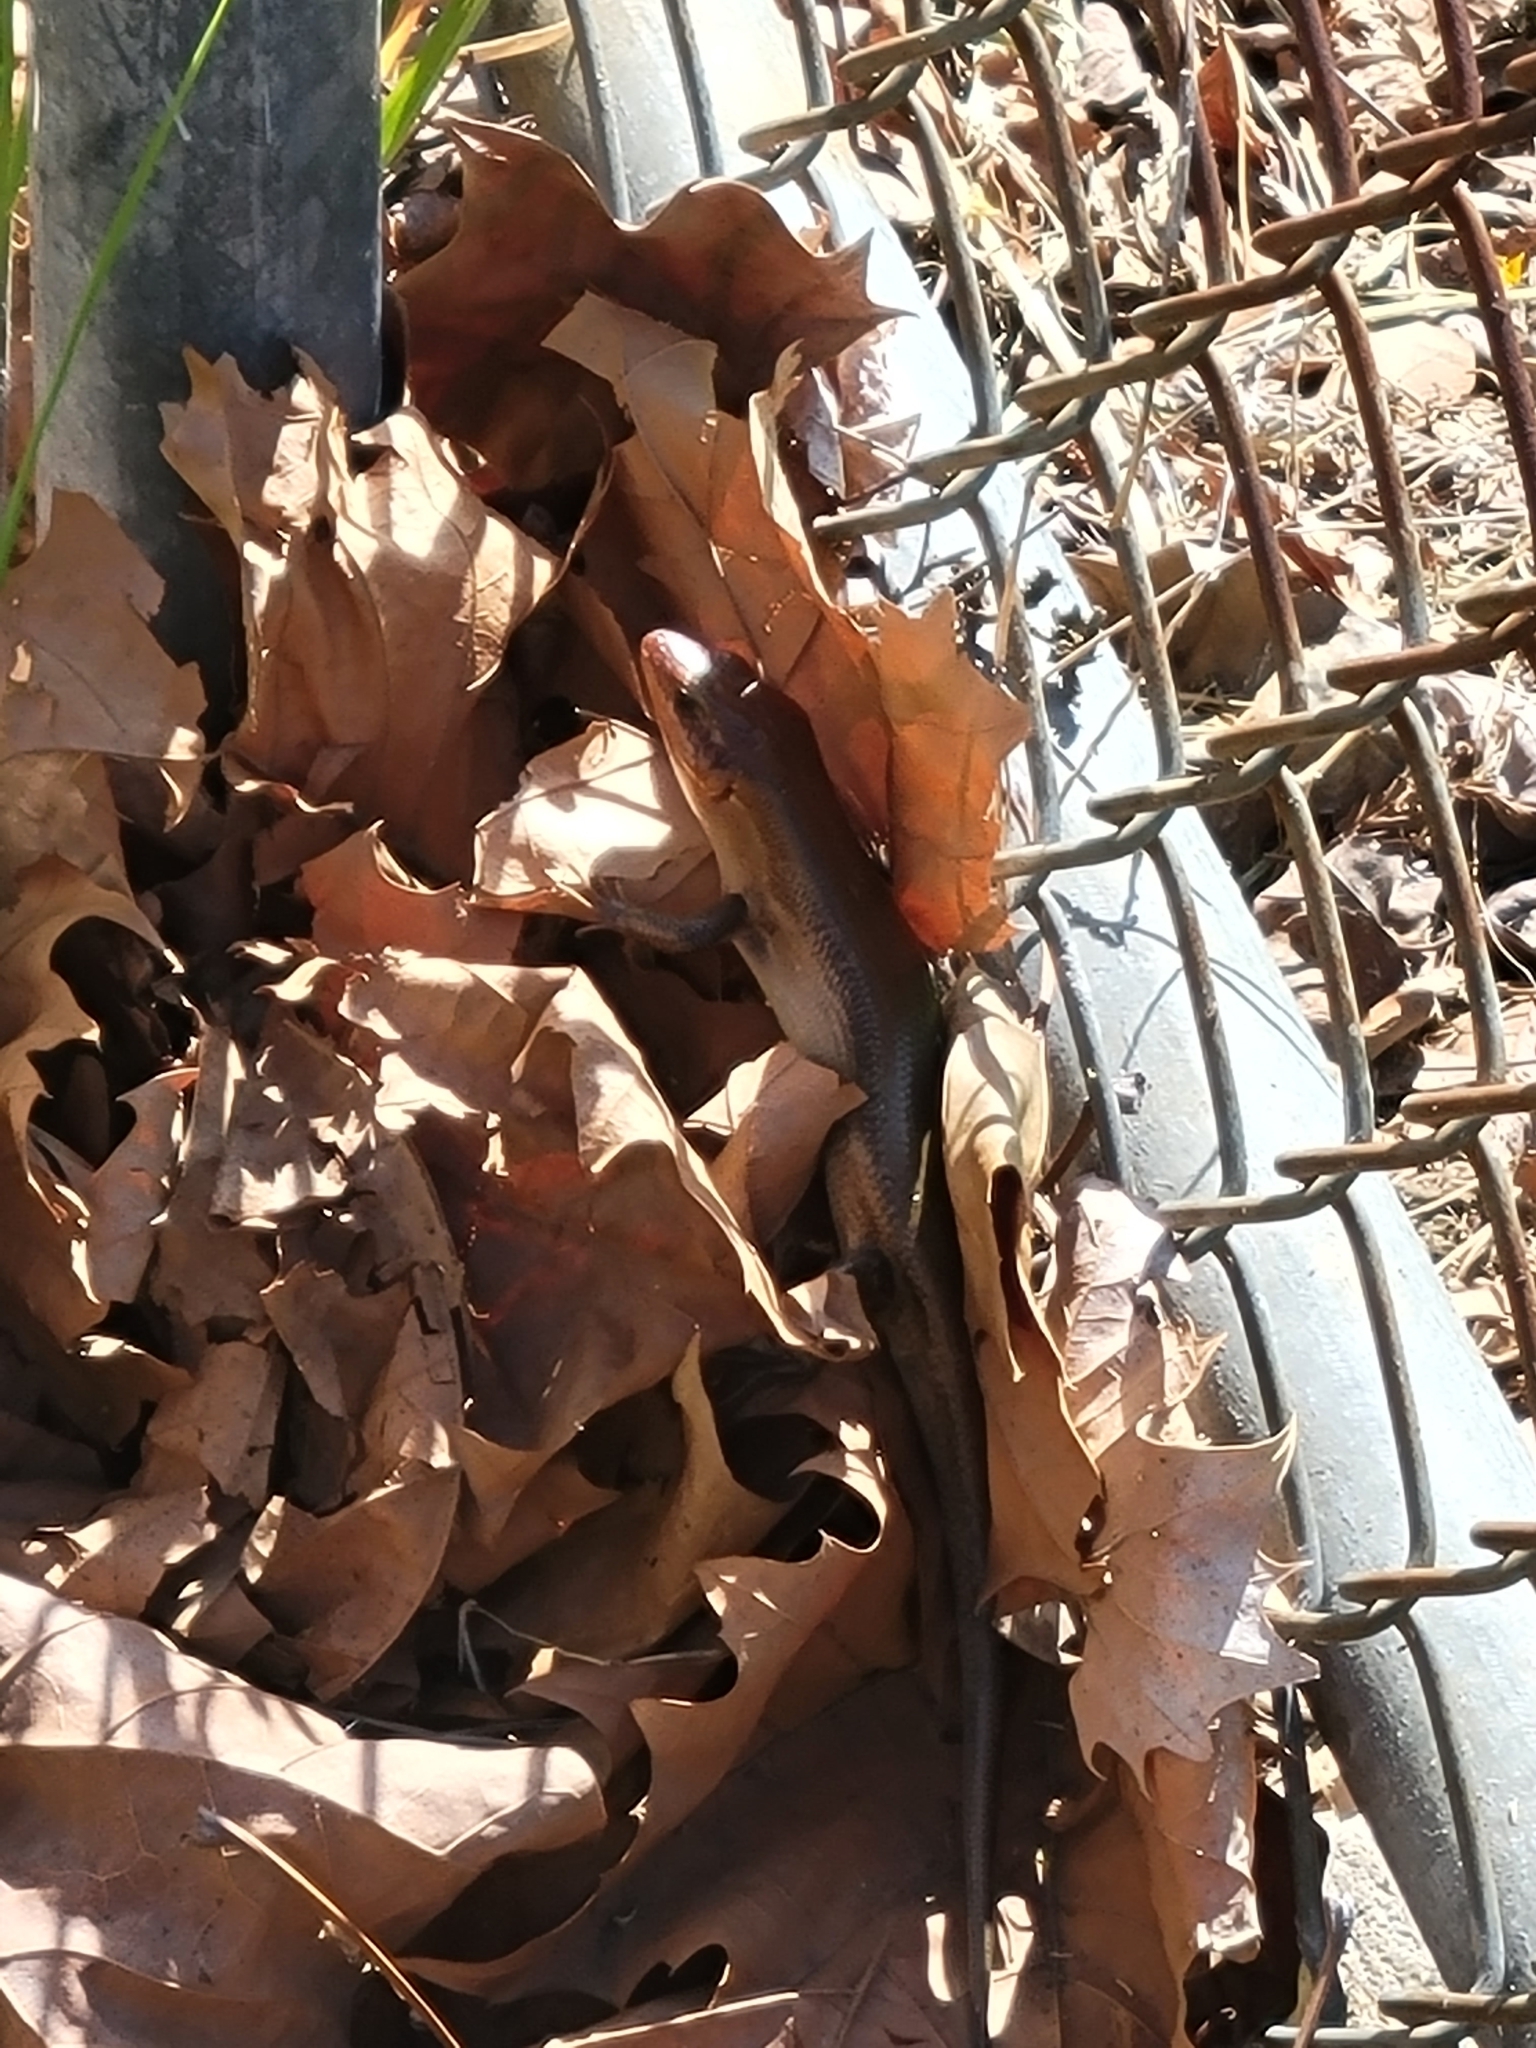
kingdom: Animalia
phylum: Chordata
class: Squamata
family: Scincidae
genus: Plestiodon
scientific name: Plestiodon laticeps
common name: Broadhead skink
